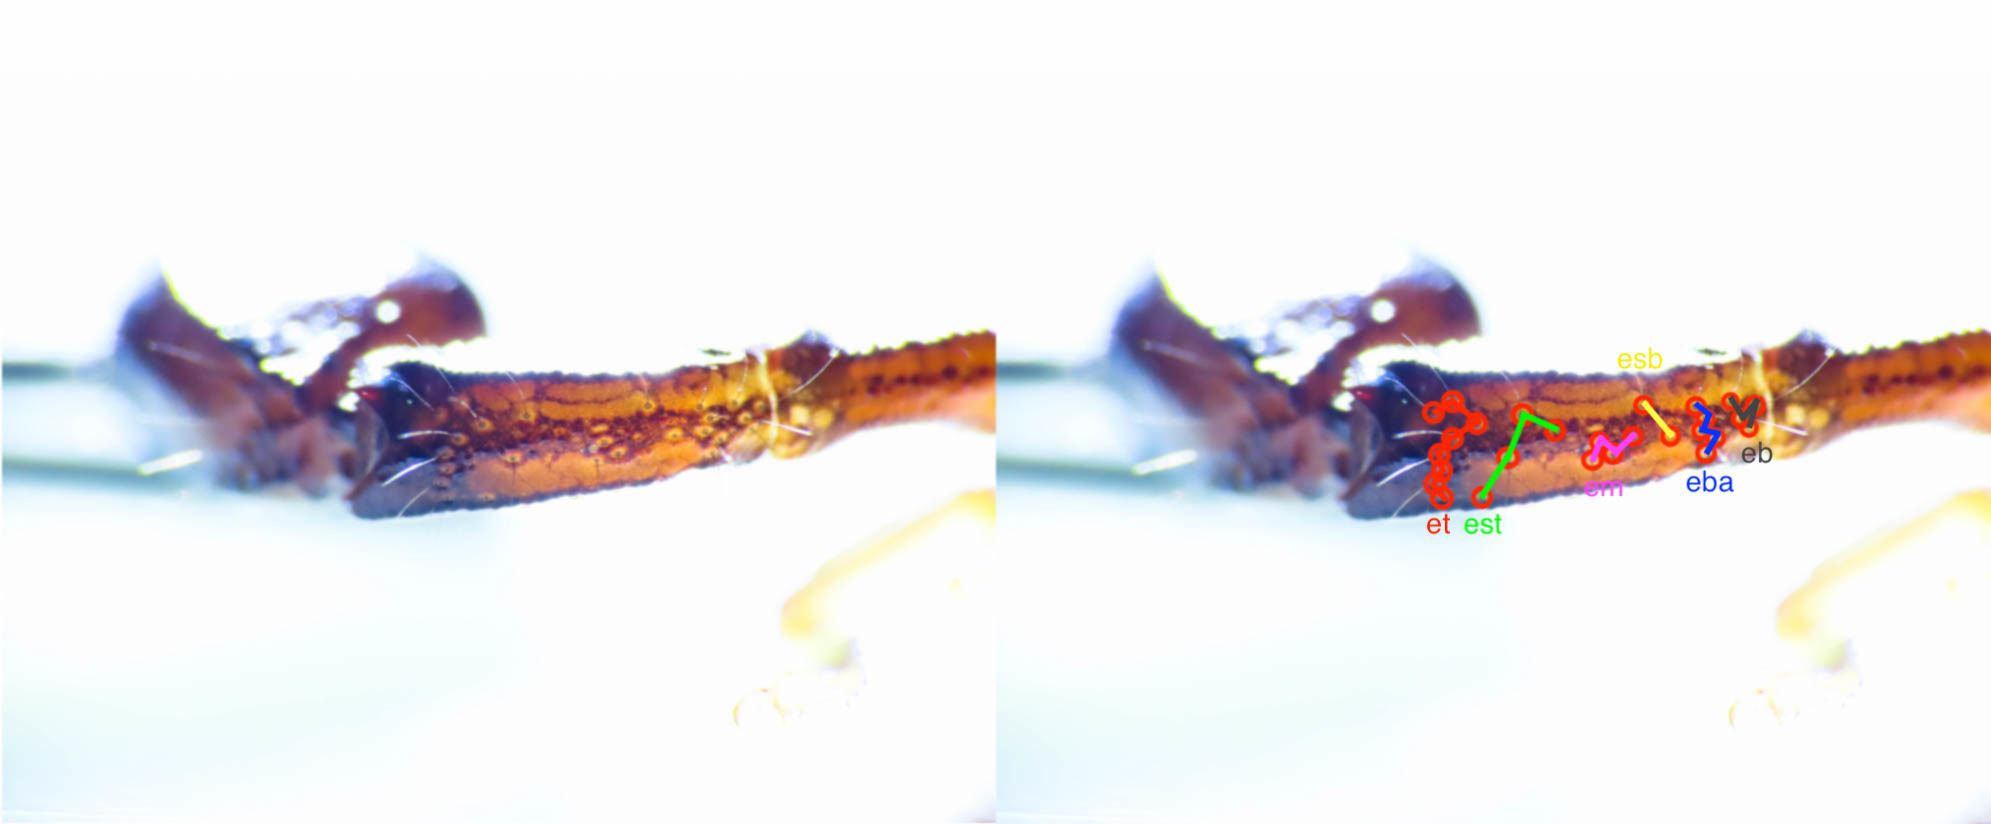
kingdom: Animalia
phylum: Arthropoda
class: Arachnida
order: Scorpiones
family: Euscorpiidae
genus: Euscorpius
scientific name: Euscorpius celanus
